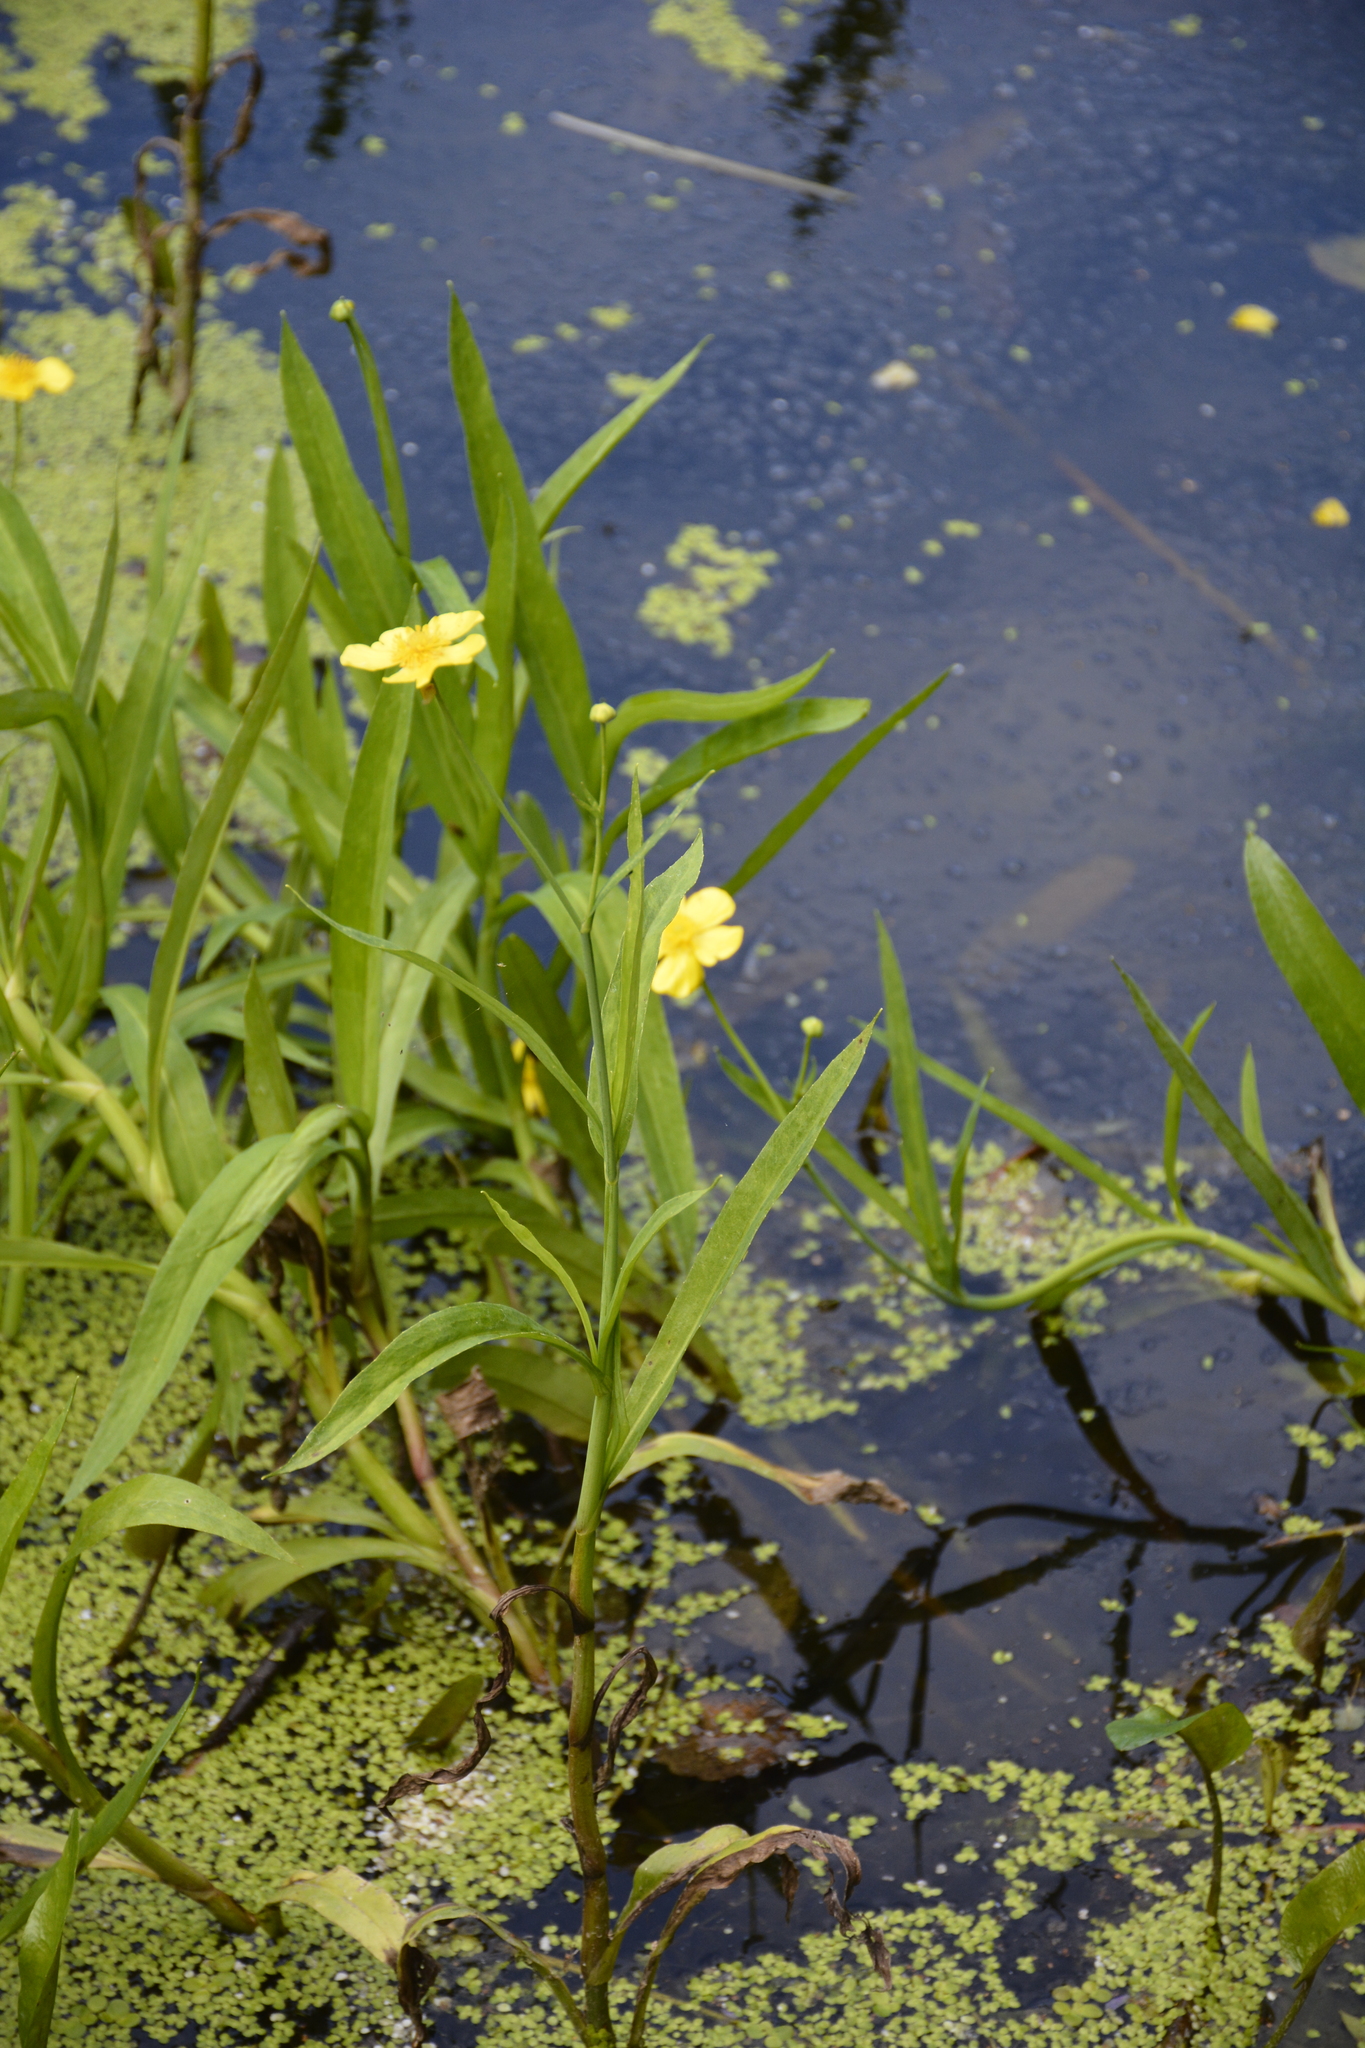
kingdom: Plantae
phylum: Tracheophyta
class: Magnoliopsida
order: Ranunculales
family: Ranunculaceae
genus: Ranunculus
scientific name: Ranunculus lingua
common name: Greater spearwort
